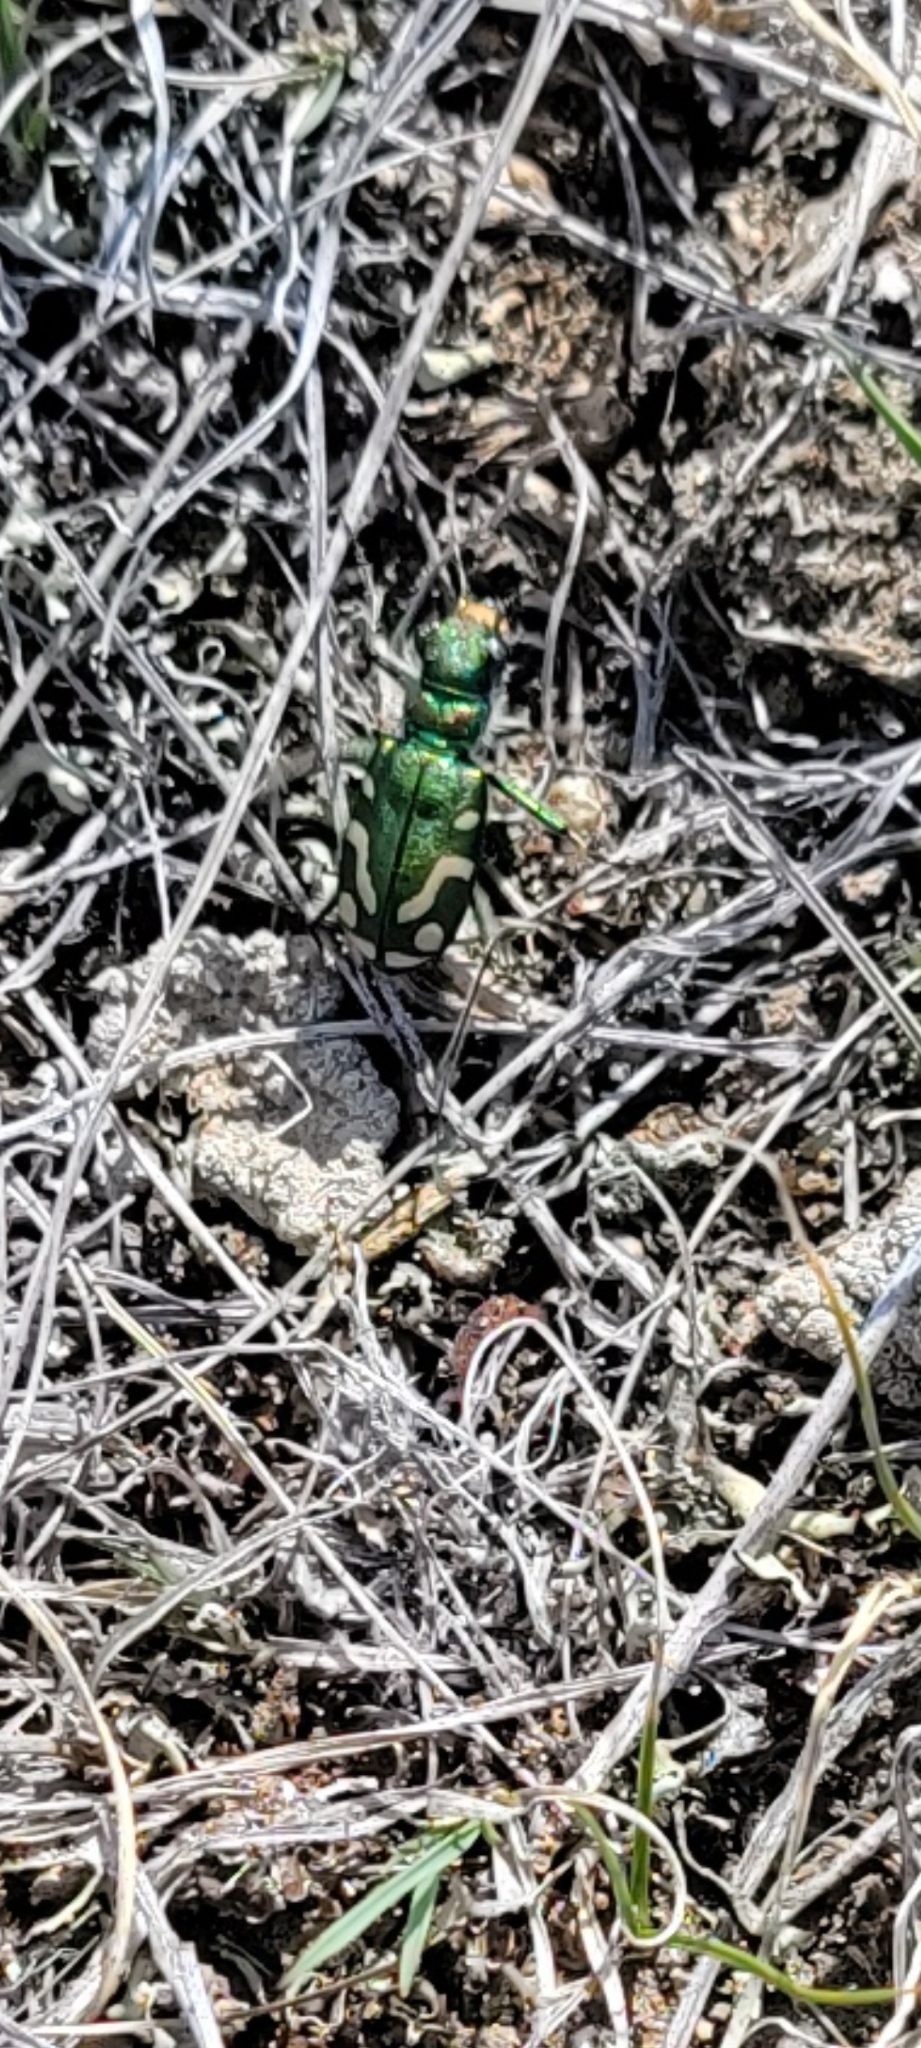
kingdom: Animalia
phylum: Arthropoda
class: Insecta
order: Coleoptera
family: Carabidae
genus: Cicindela
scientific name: Cicindela decemnotata
